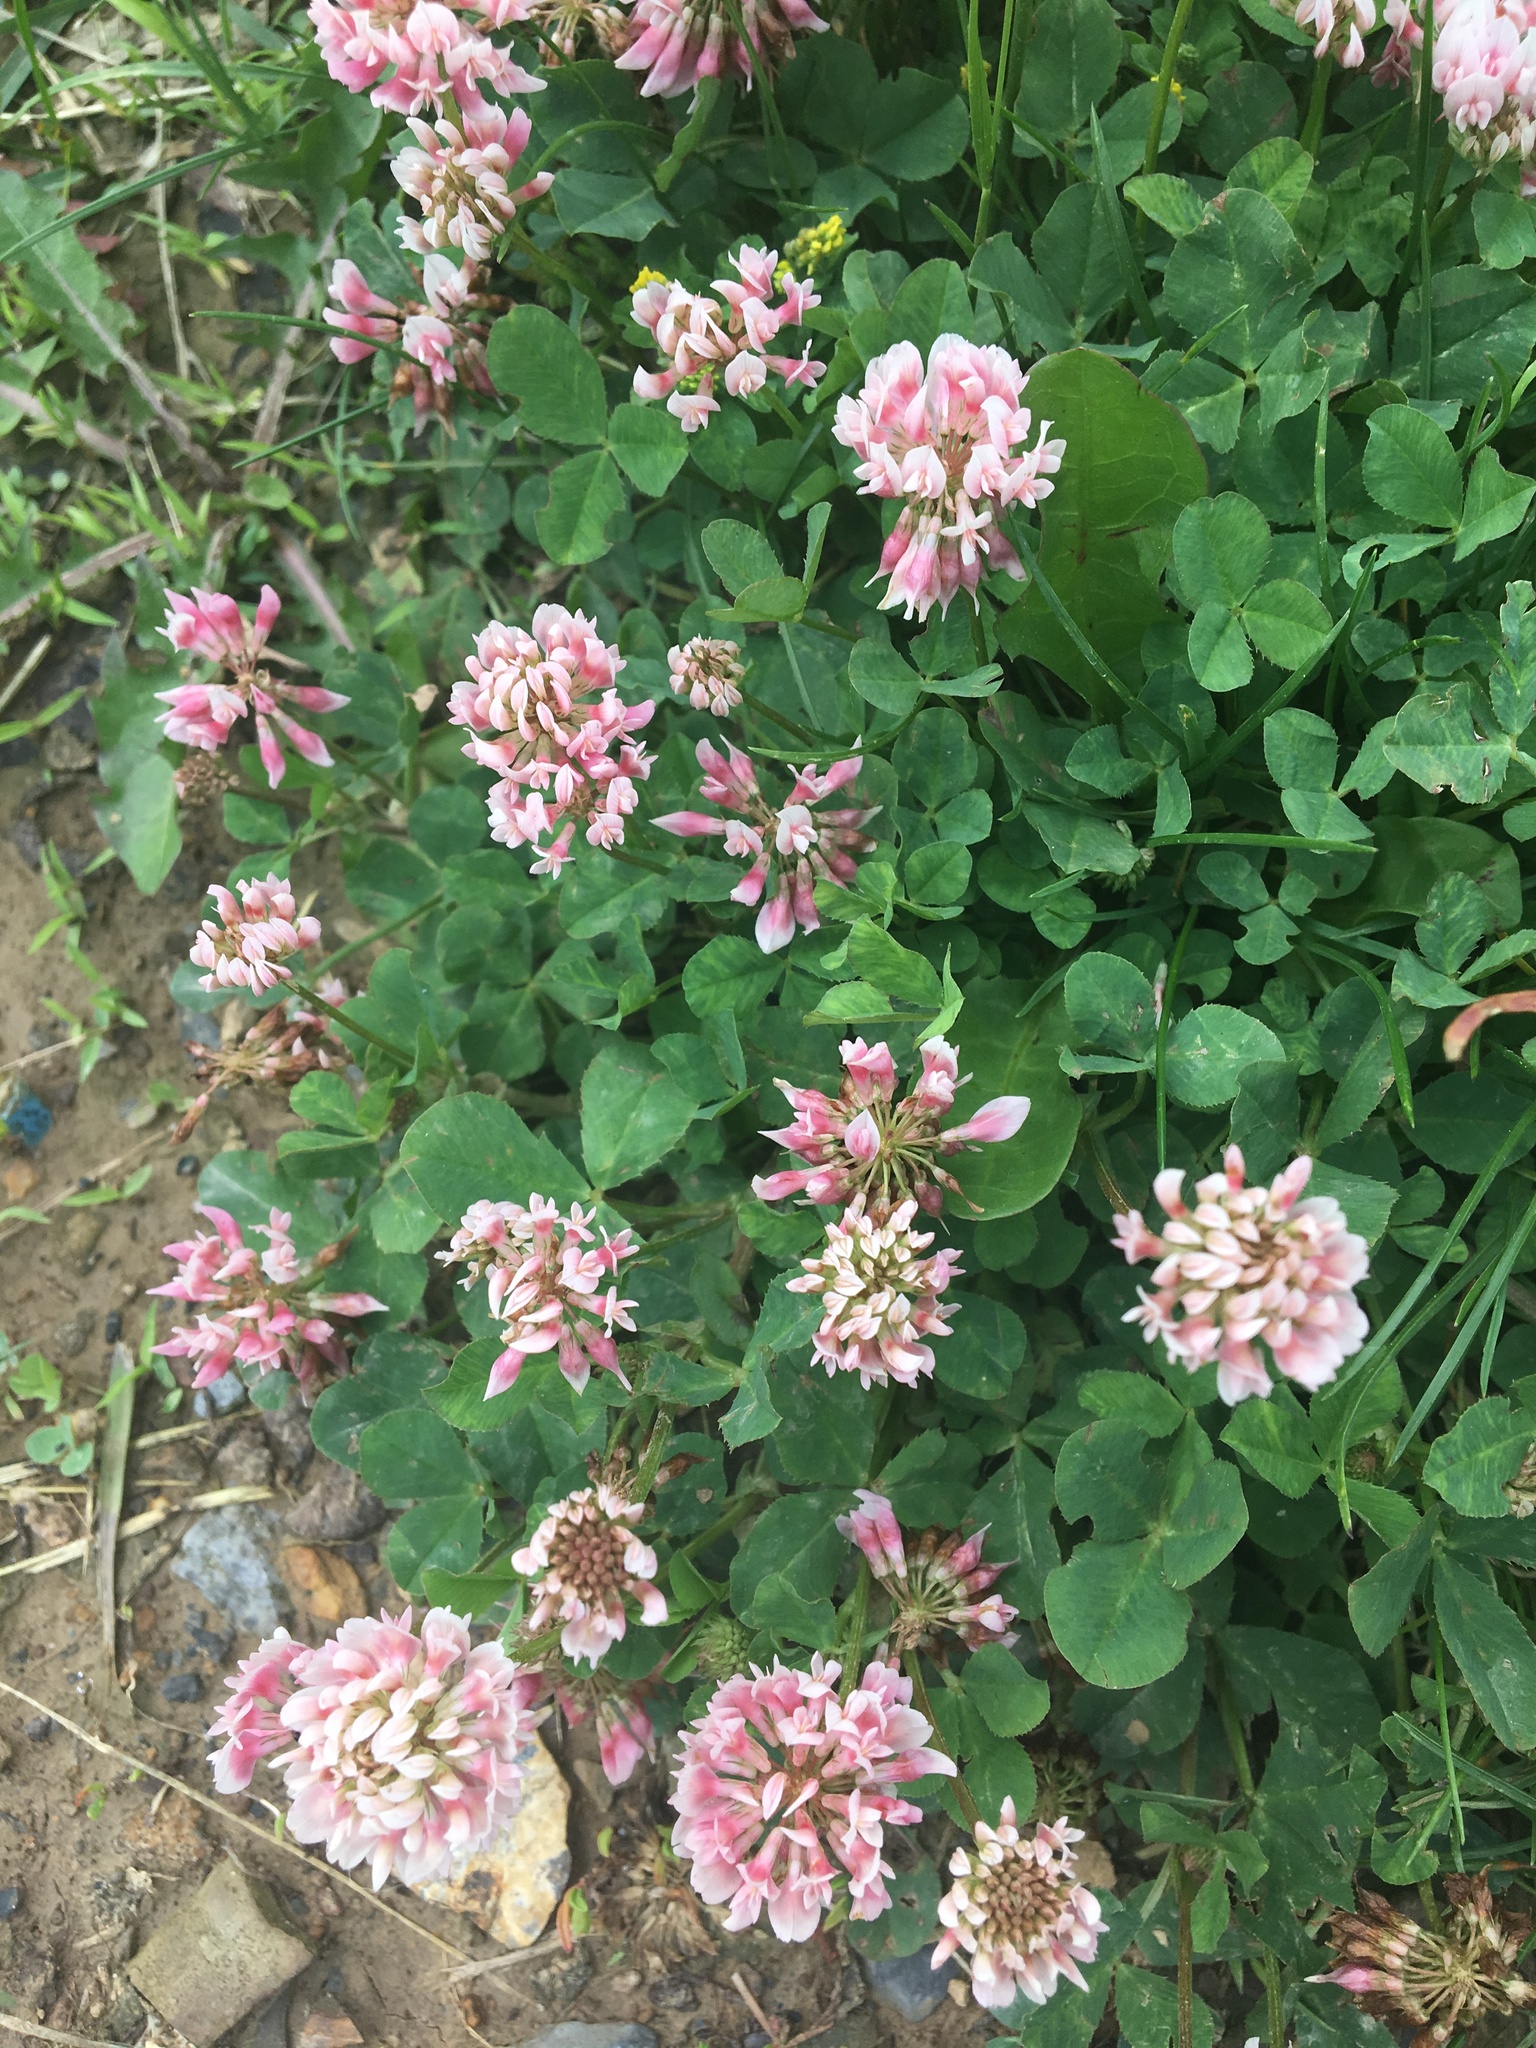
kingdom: Plantae
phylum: Tracheophyta
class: Magnoliopsida
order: Fabales
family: Fabaceae
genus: Trifolium
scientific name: Trifolium hybridum
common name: Alsike clover
